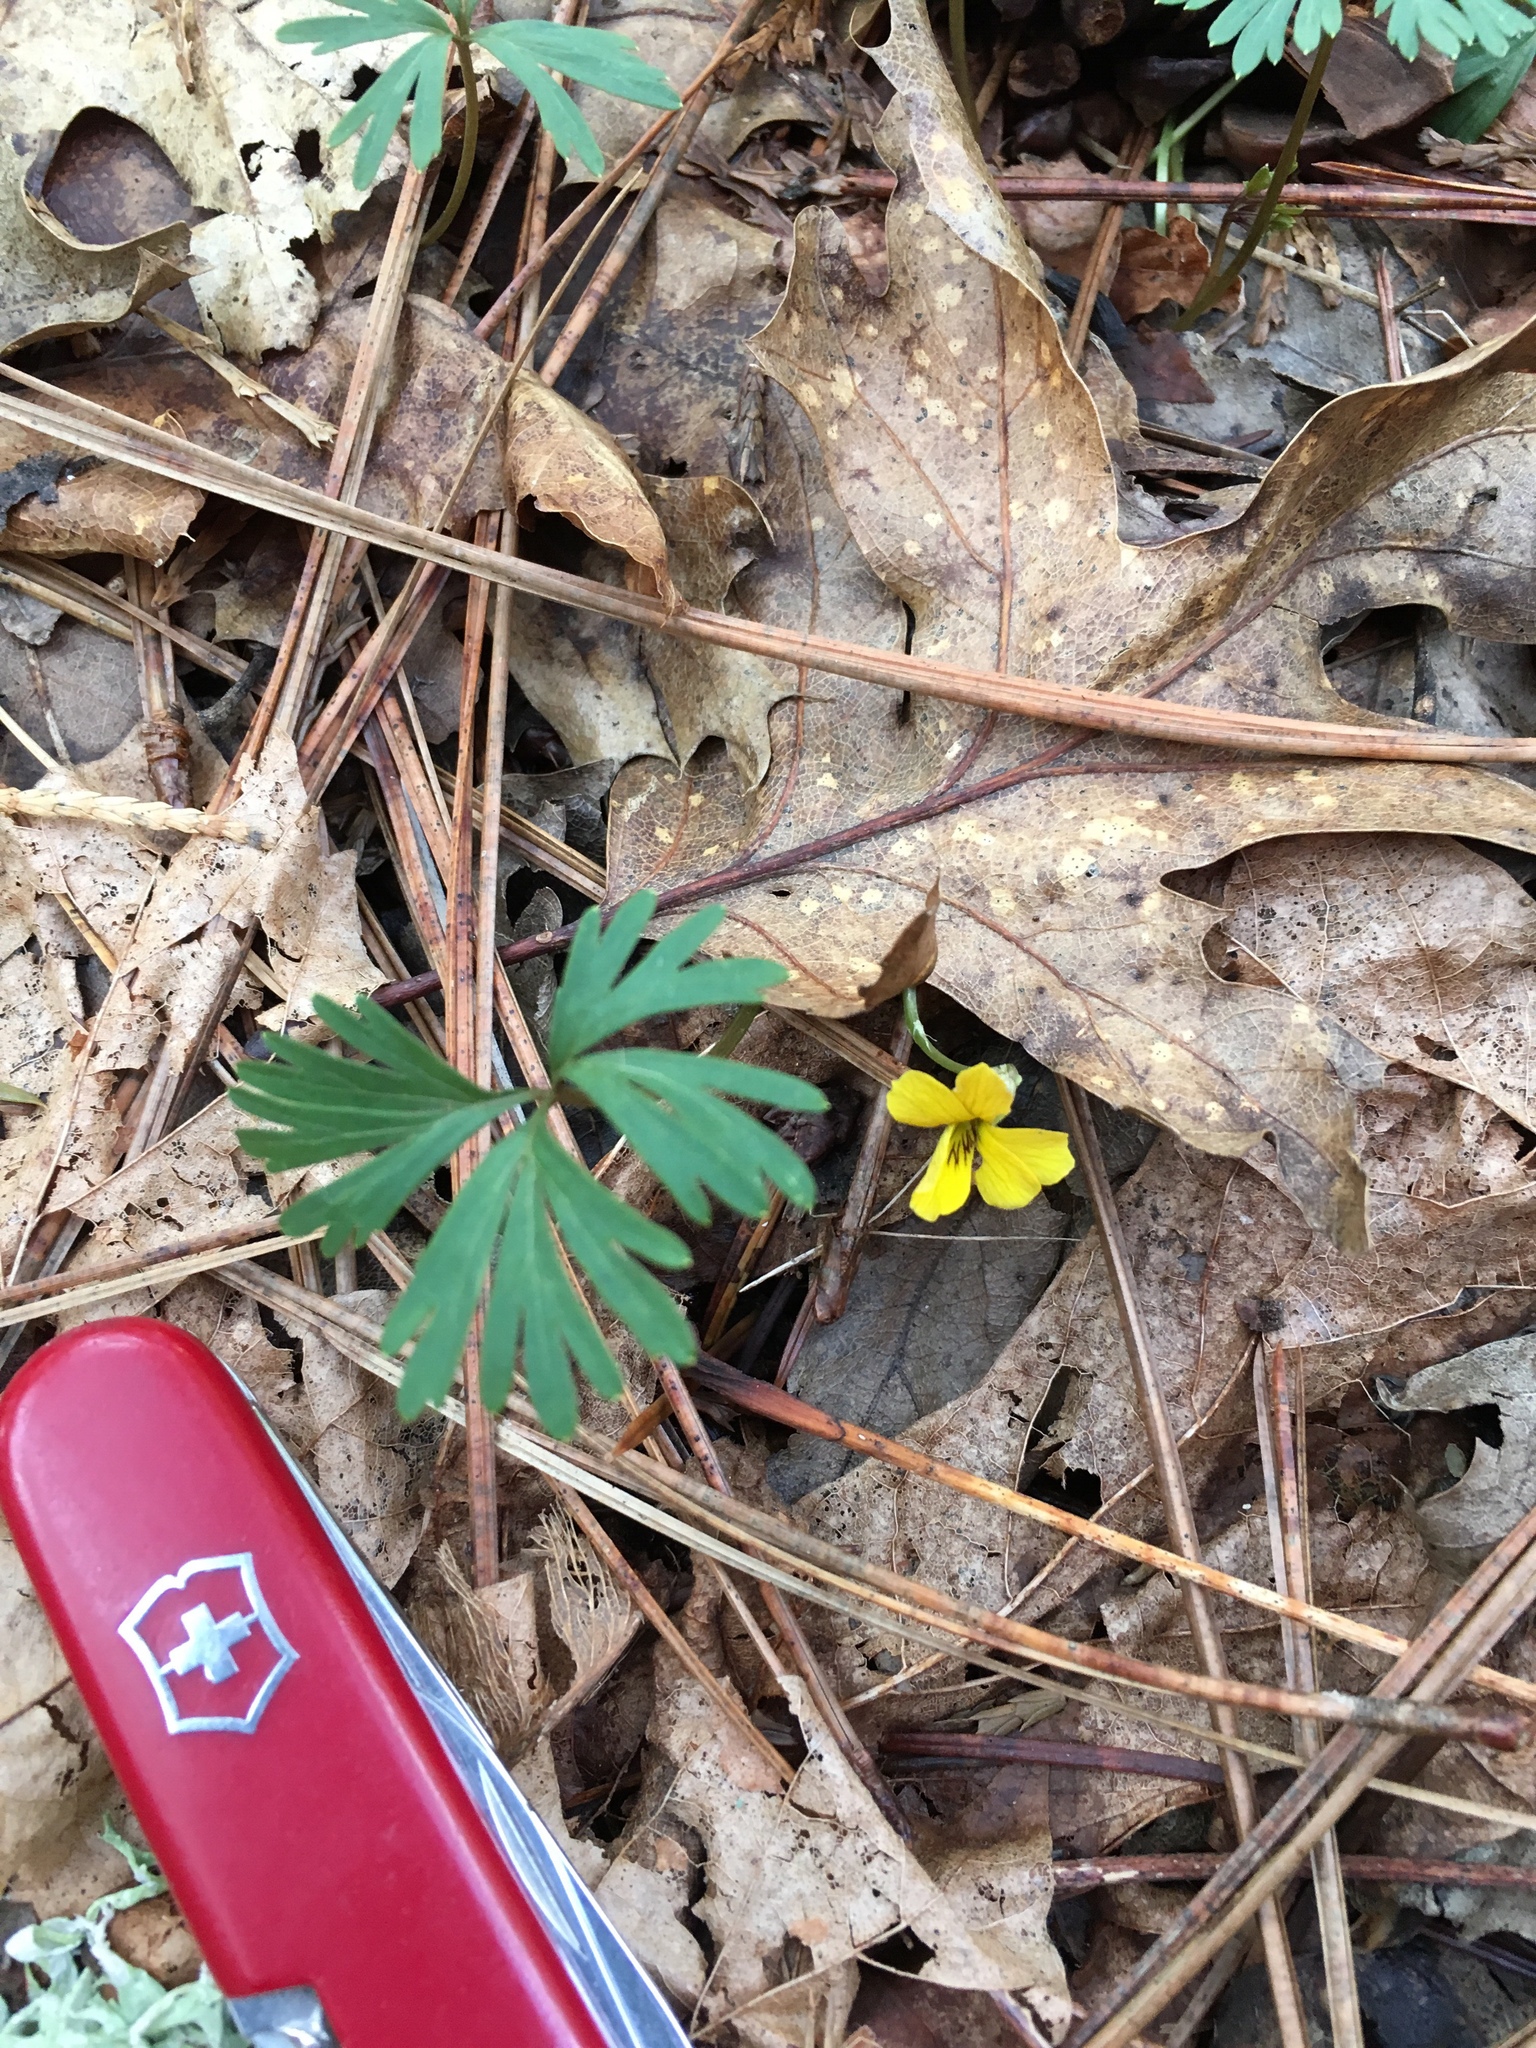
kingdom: Plantae
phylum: Tracheophyta
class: Magnoliopsida
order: Malpighiales
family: Violaceae
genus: Viola
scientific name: Viola sheltonii
